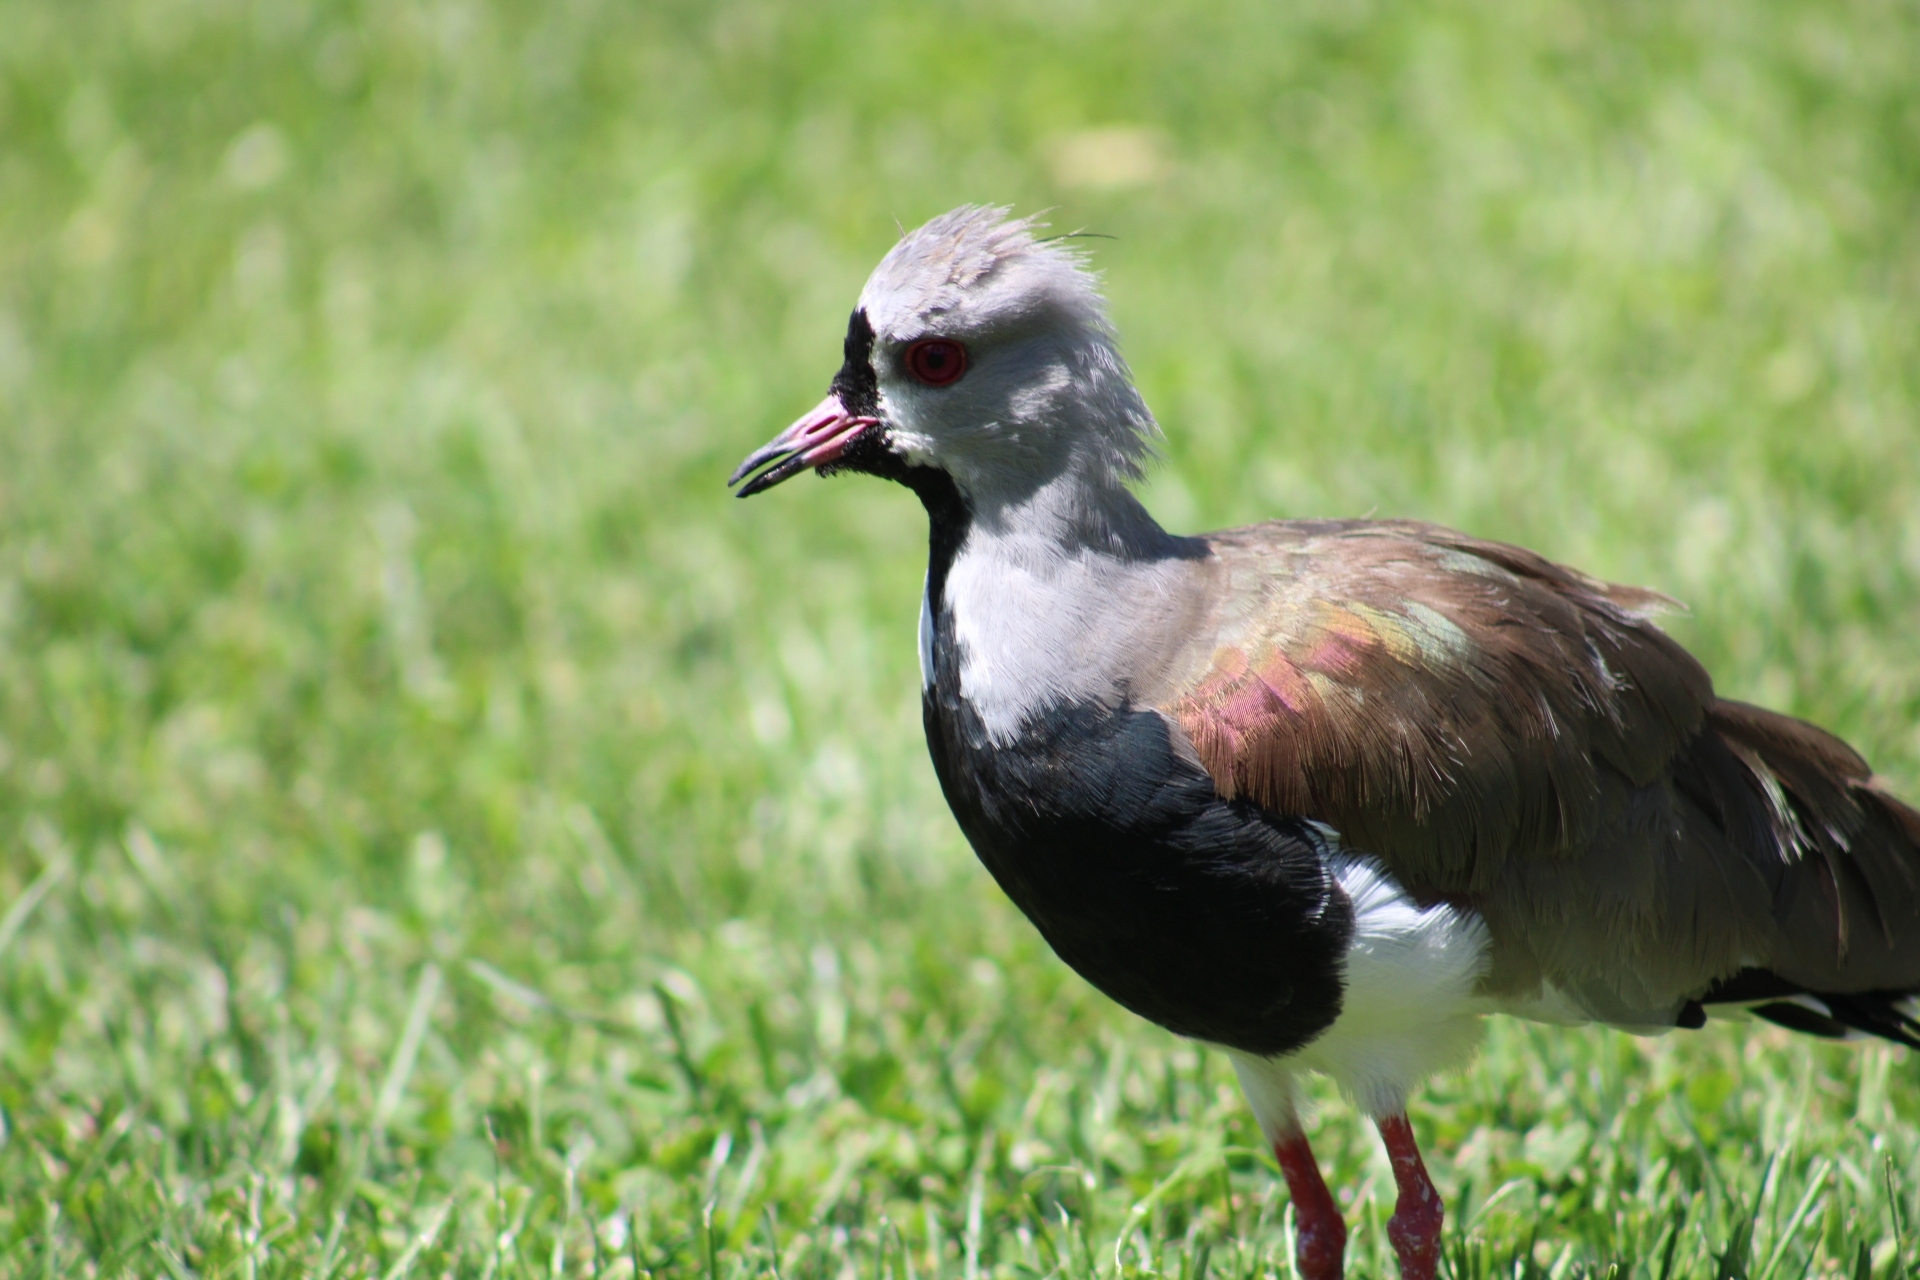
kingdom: Animalia
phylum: Chordata
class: Aves
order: Charadriiformes
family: Charadriidae
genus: Vanellus
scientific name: Vanellus chilensis
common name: Southern lapwing
